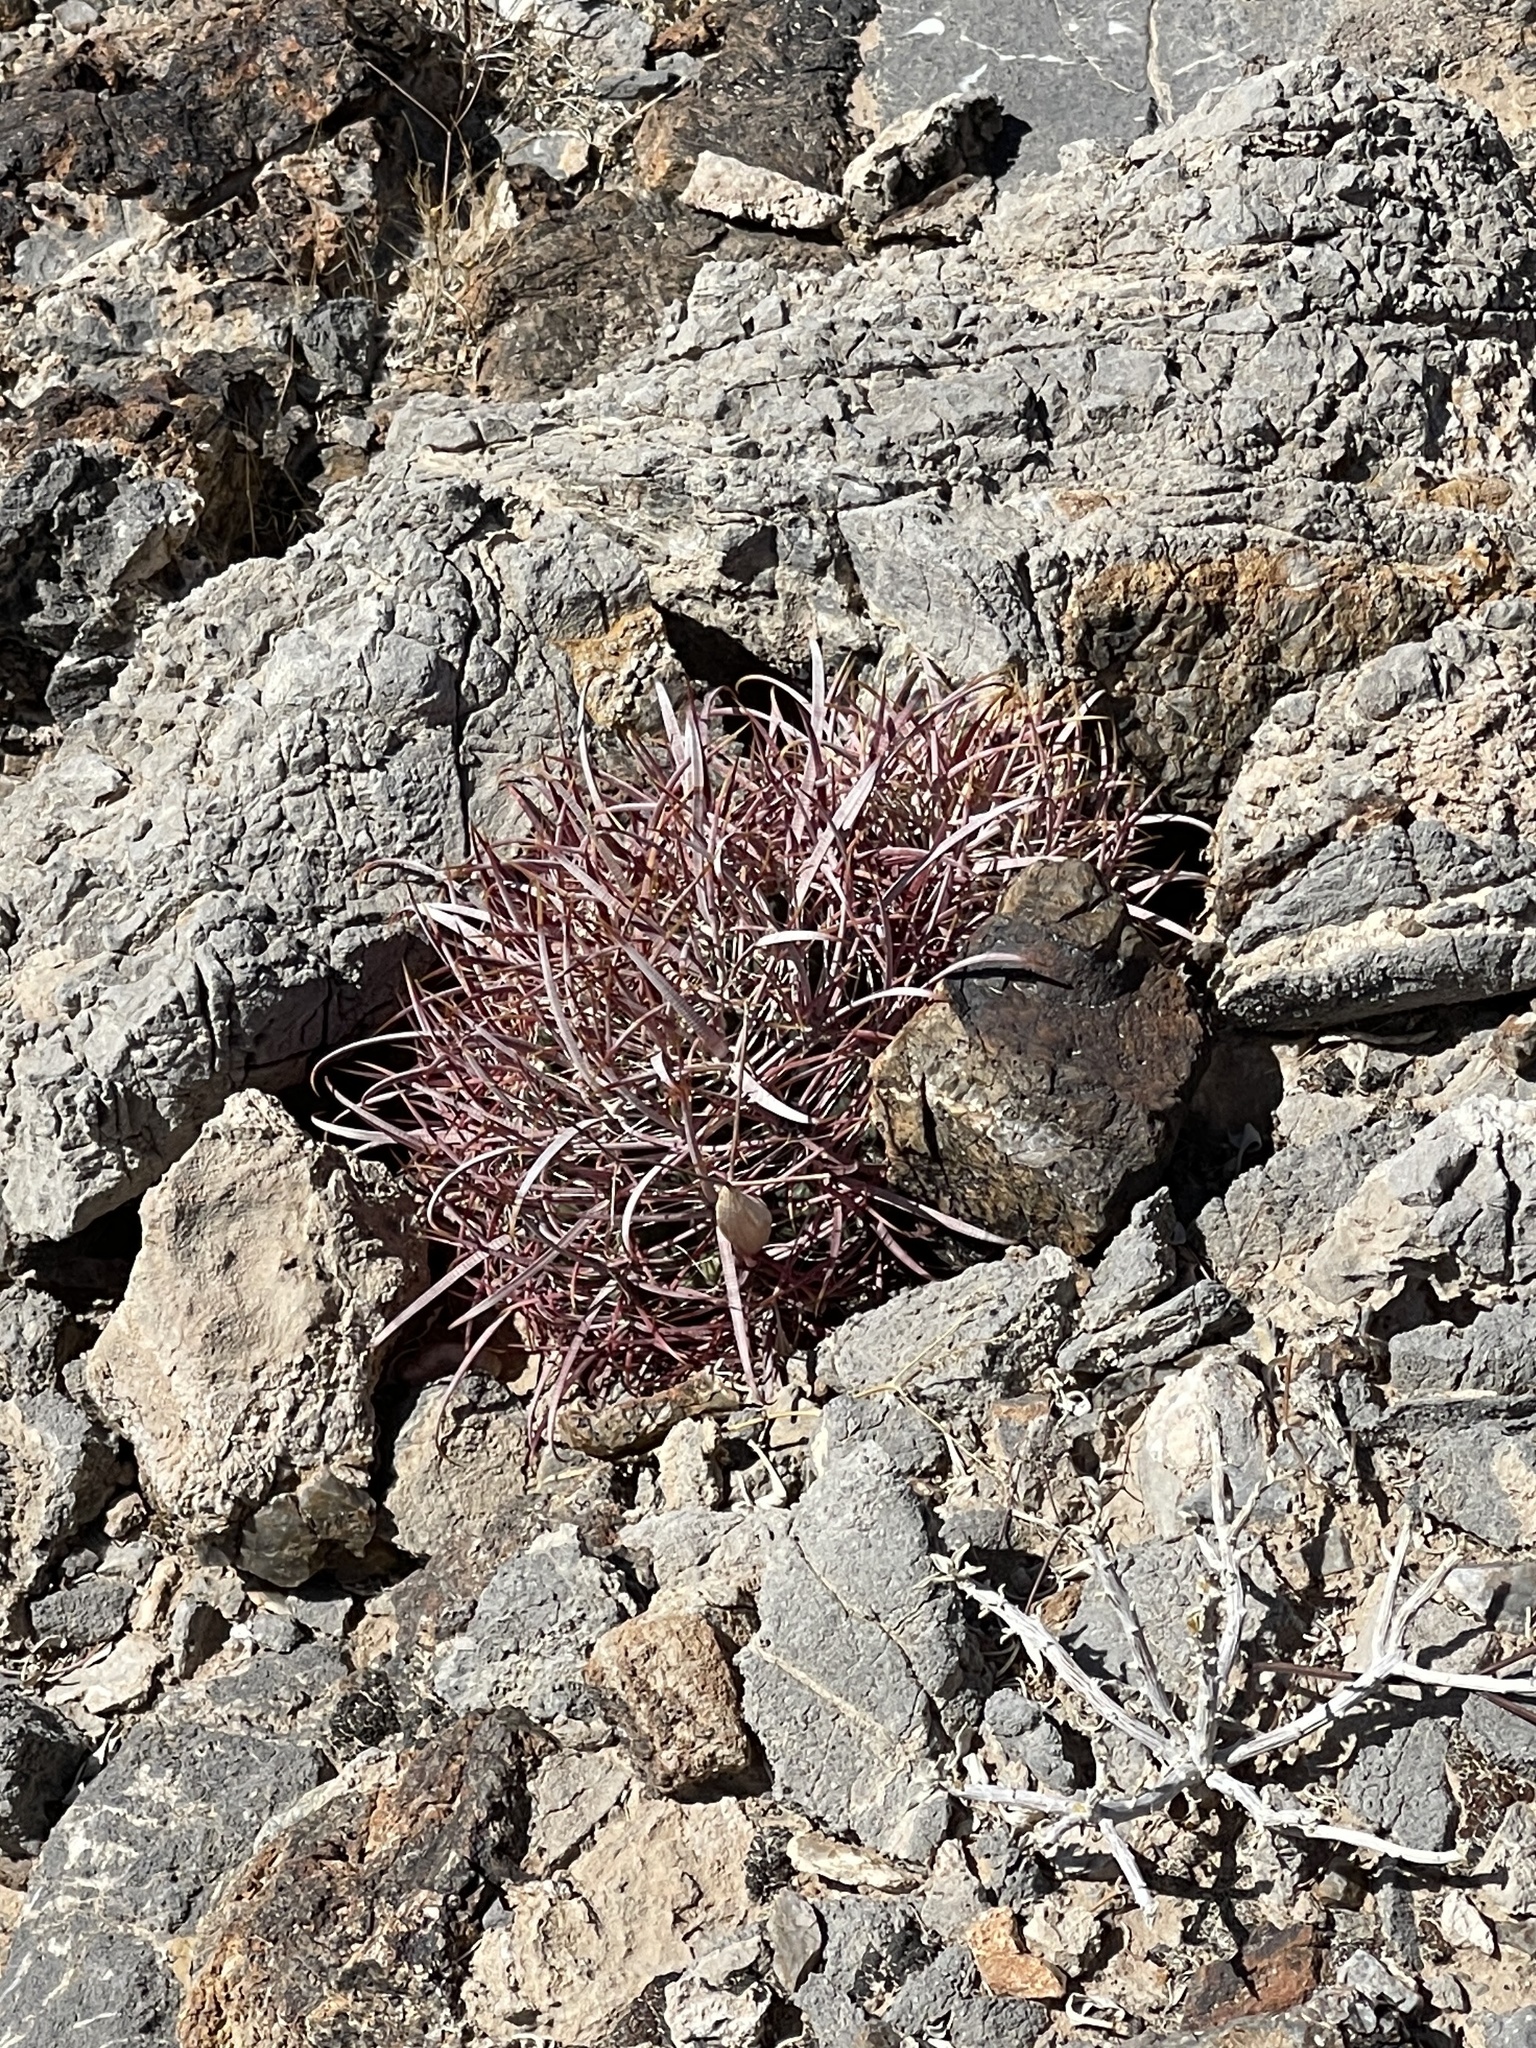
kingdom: Plantae
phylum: Tracheophyta
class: Magnoliopsida
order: Caryophyllales
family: Cactaceae
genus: Ferocactus
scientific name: Ferocactus cylindraceus
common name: California barrel cactus
